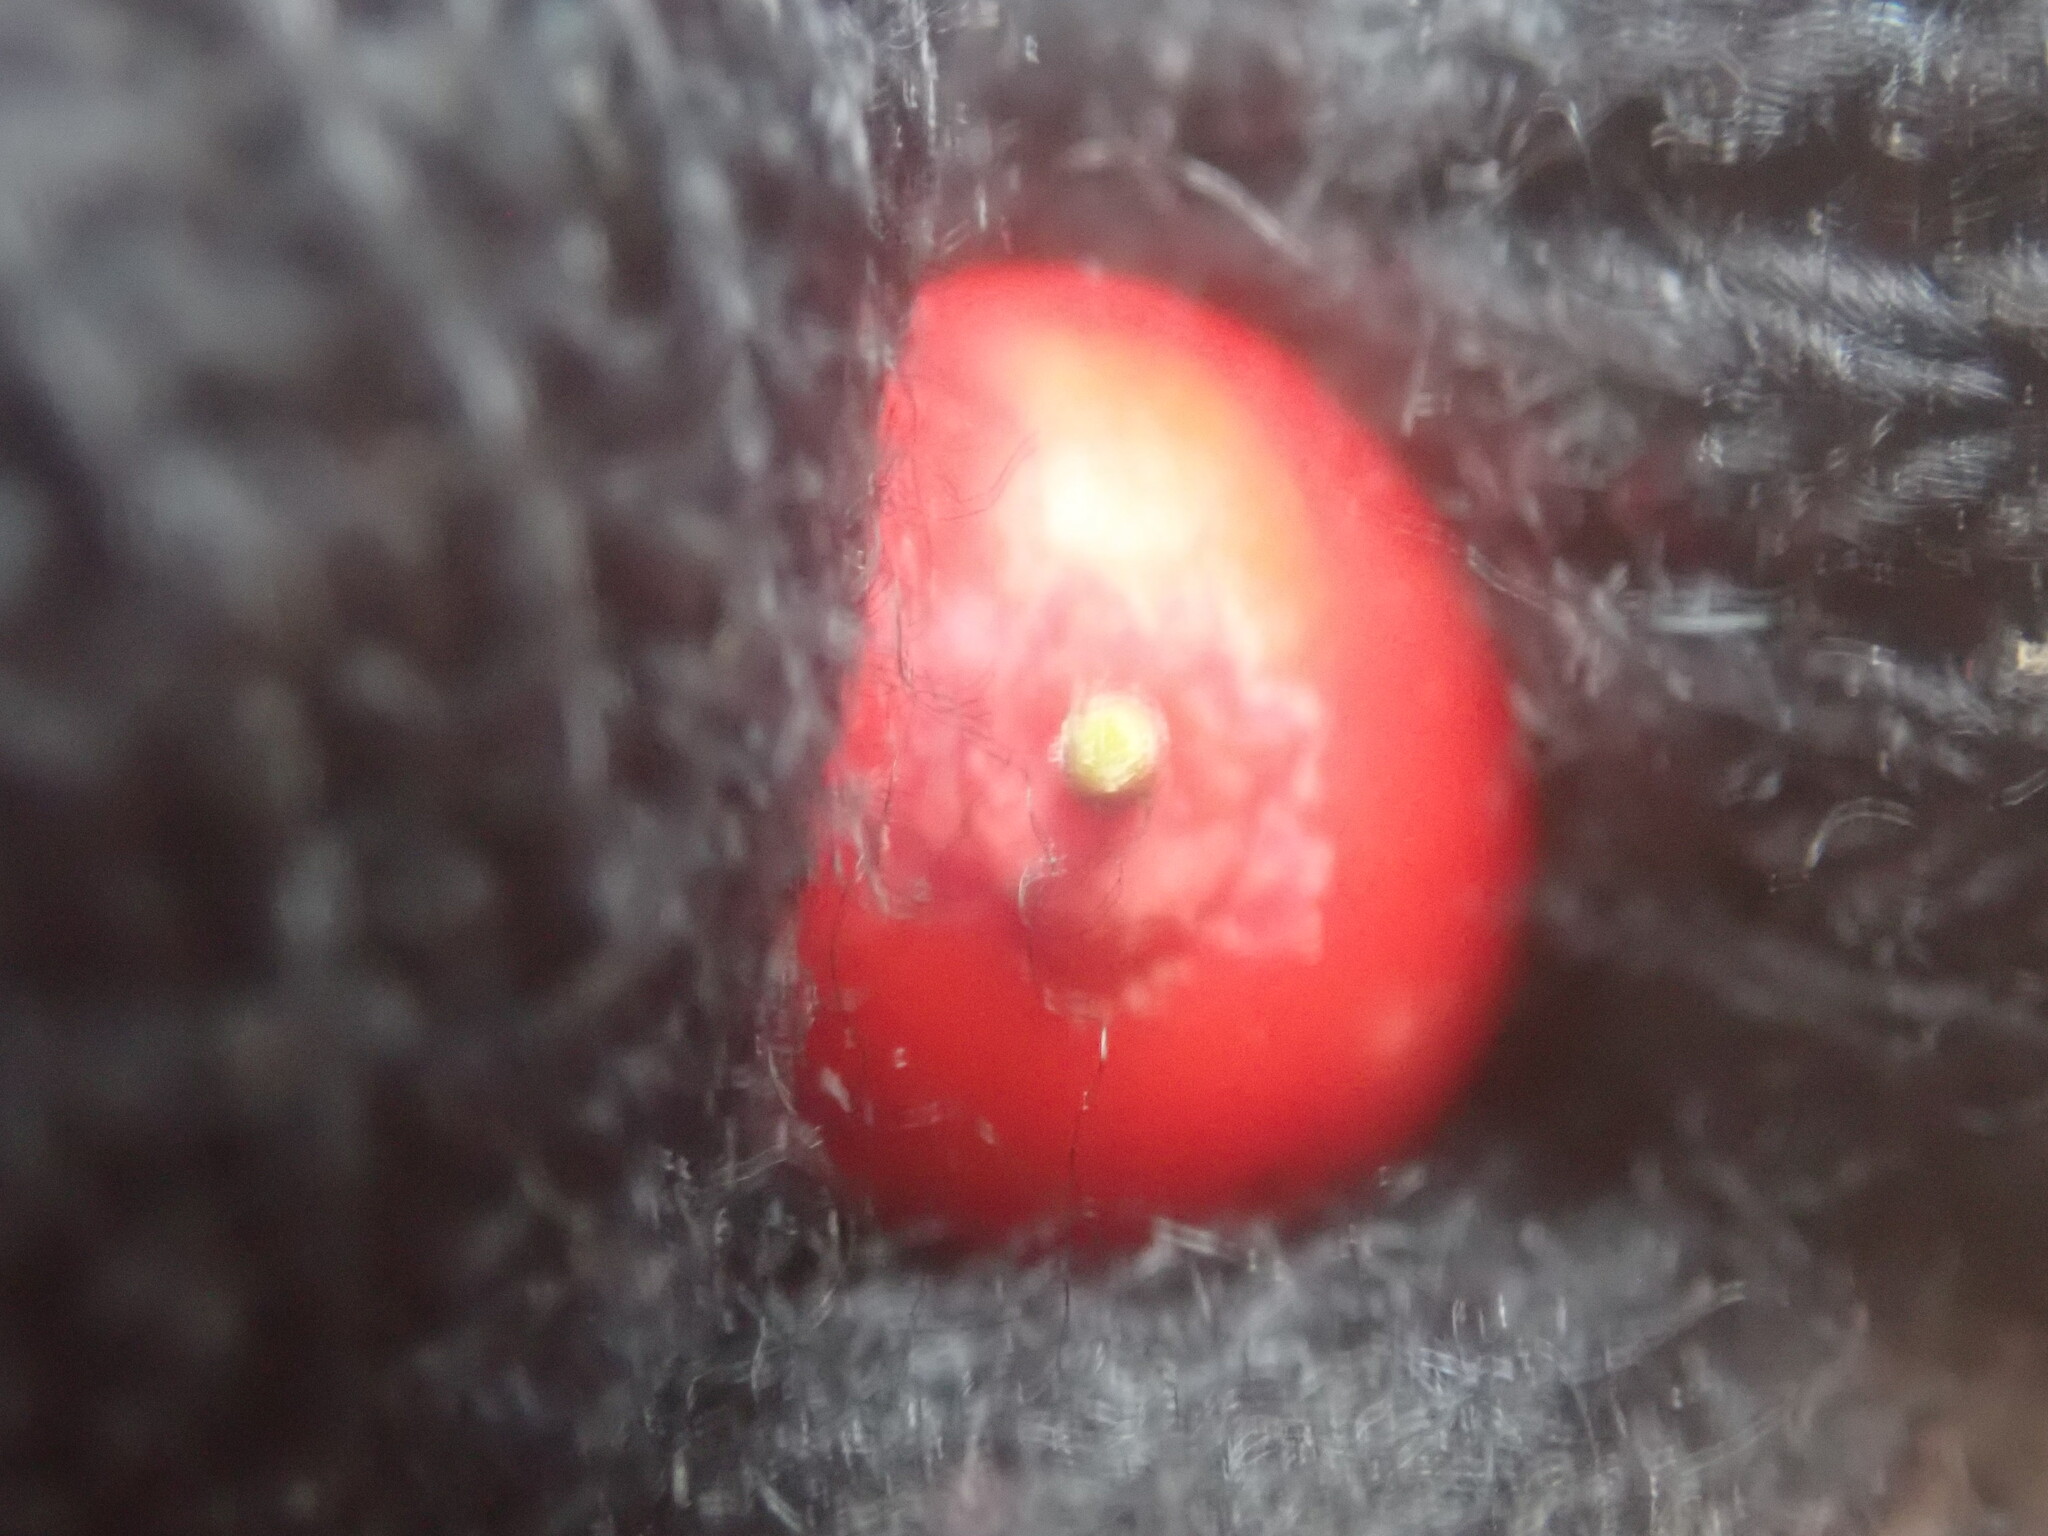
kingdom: Plantae
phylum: Tracheophyta
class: Magnoliopsida
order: Aquifoliales
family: Aquifoliaceae
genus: Ilex
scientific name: Ilex verticillata
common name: Virginia winterberry
